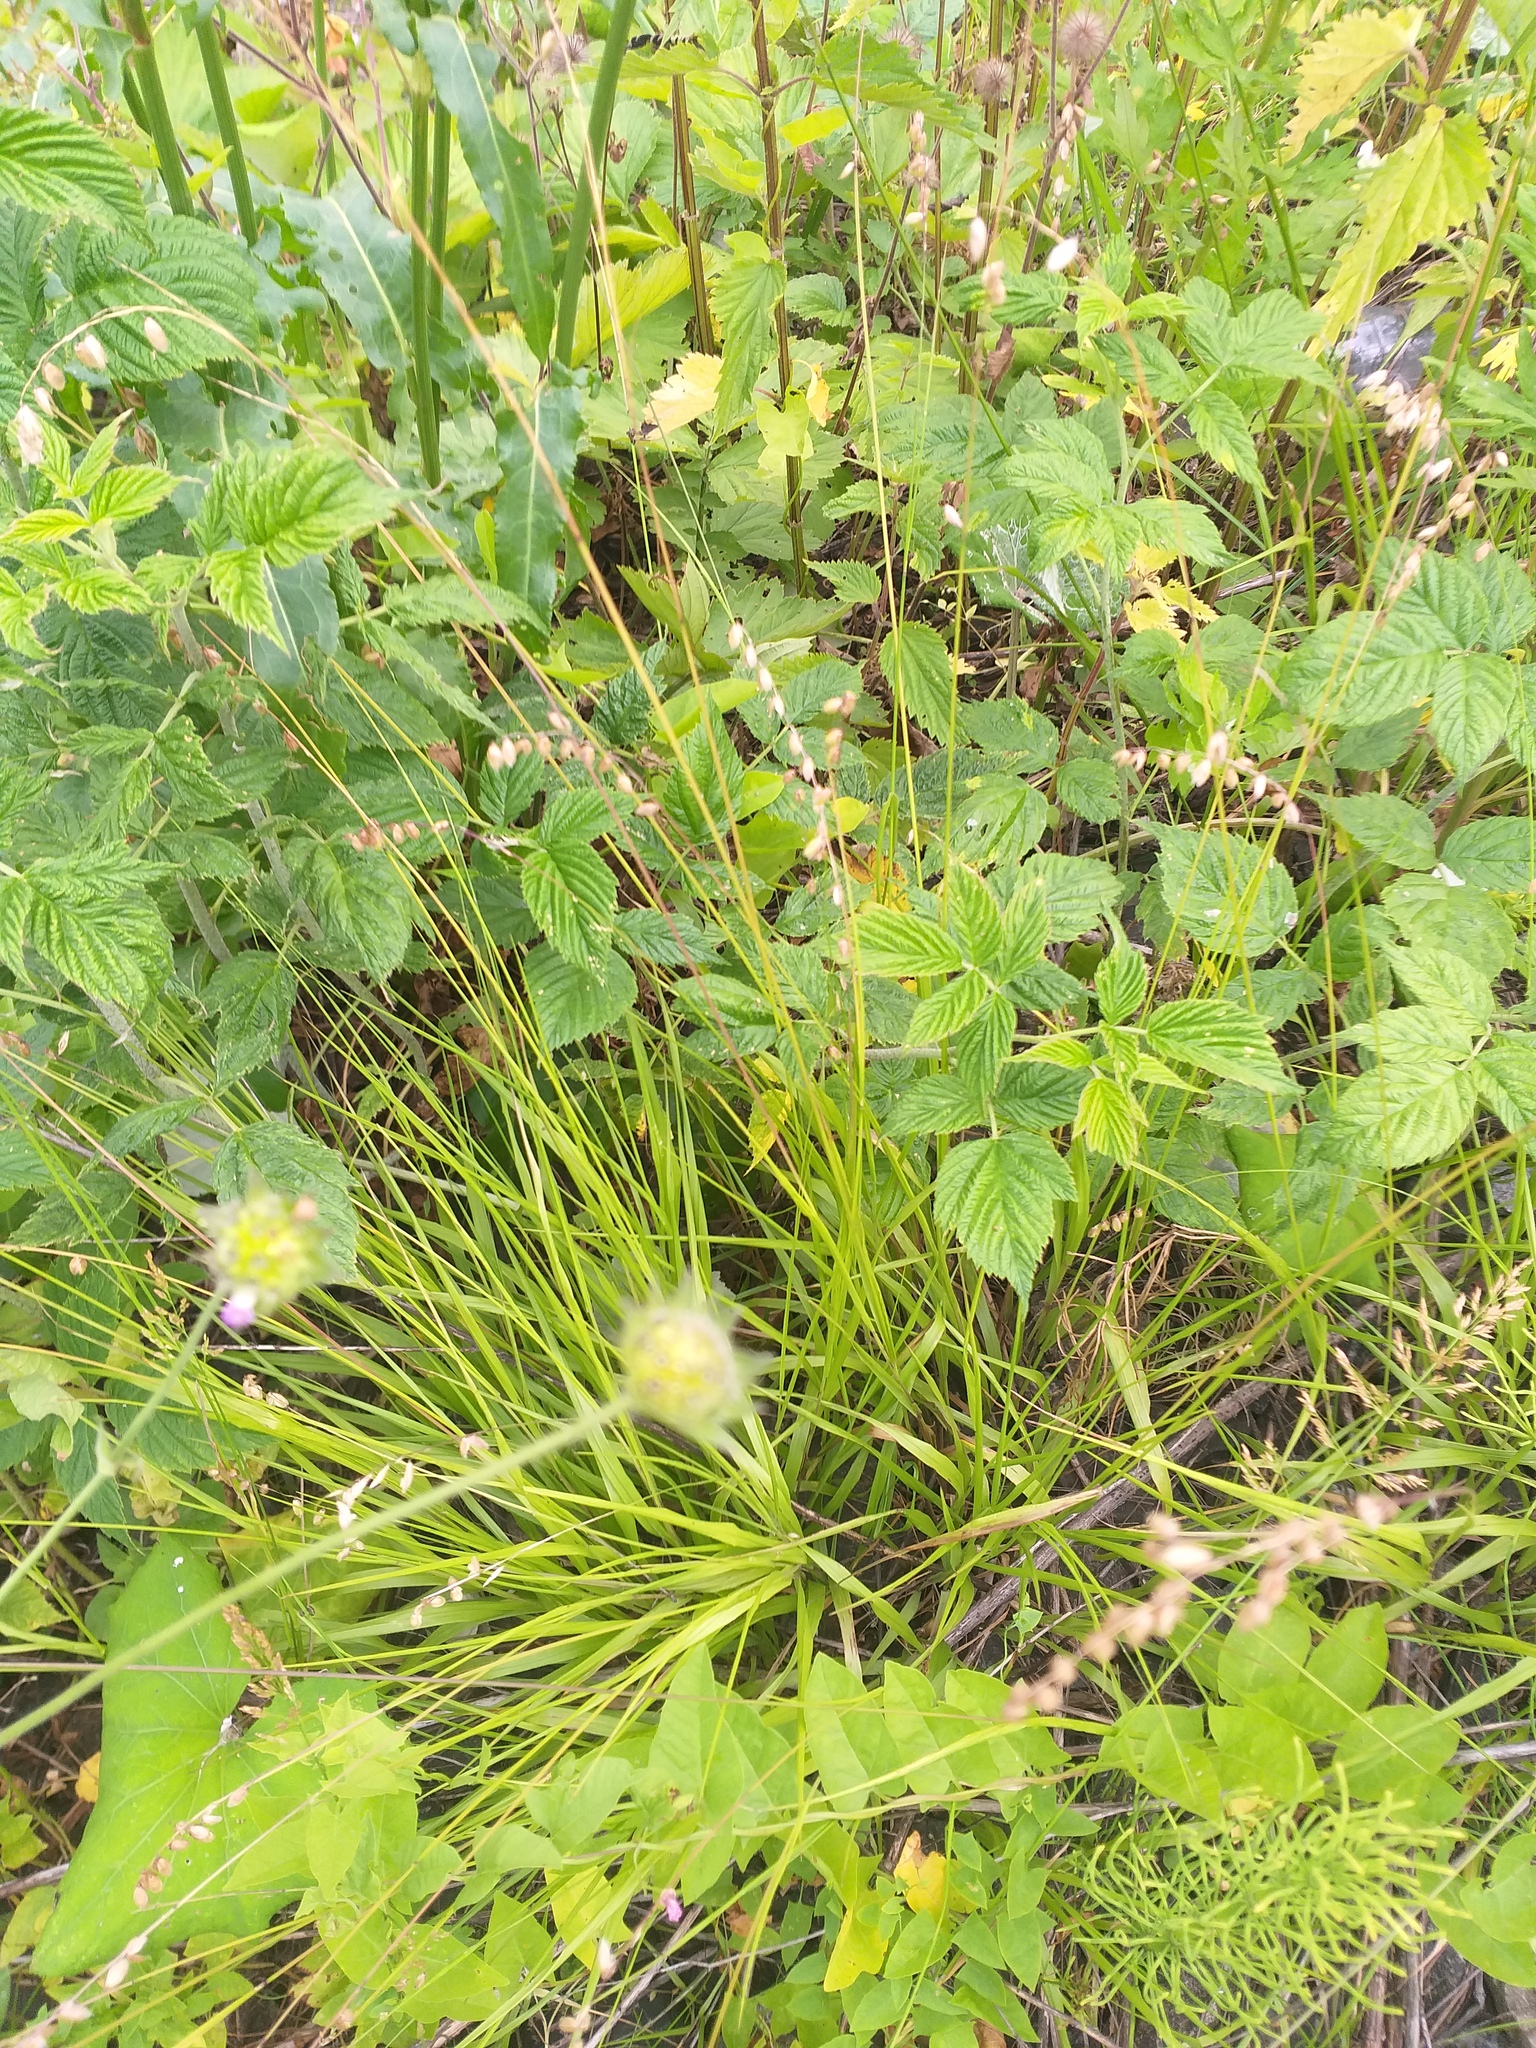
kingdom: Plantae
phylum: Tracheophyta
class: Liliopsida
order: Poales
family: Poaceae
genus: Melica
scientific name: Melica nutans
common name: Mountain melick
